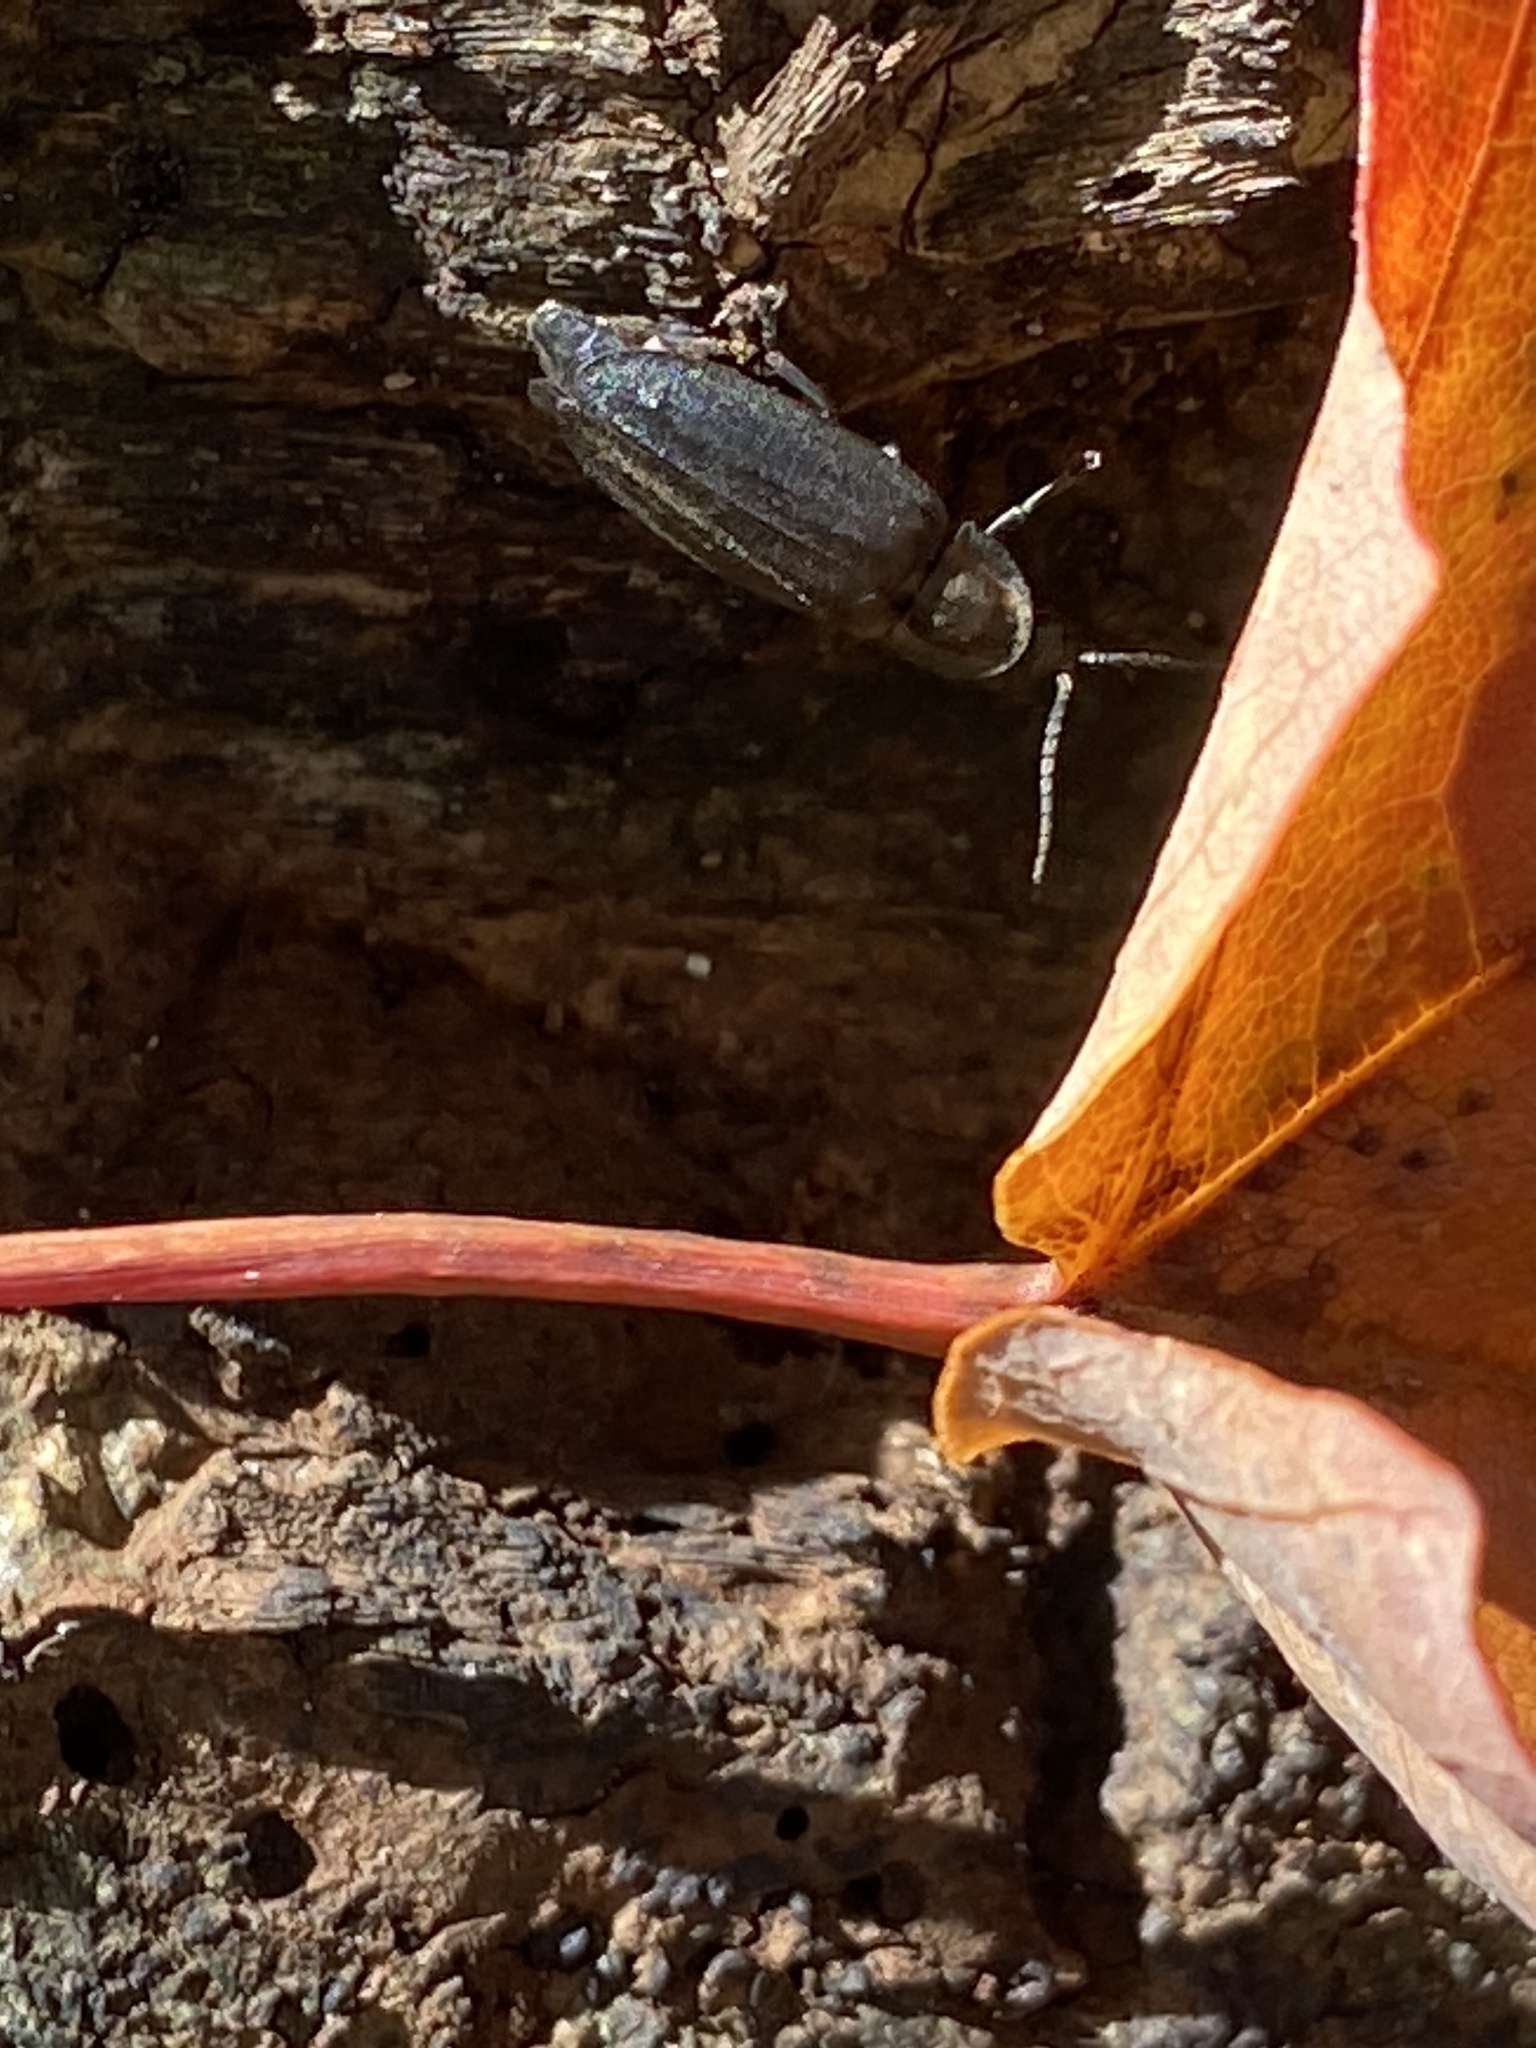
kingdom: Animalia
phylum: Arthropoda
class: Insecta
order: Coleoptera
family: Lampyridae
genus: Photinus
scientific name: Photinus corrusca
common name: Winter firefly
